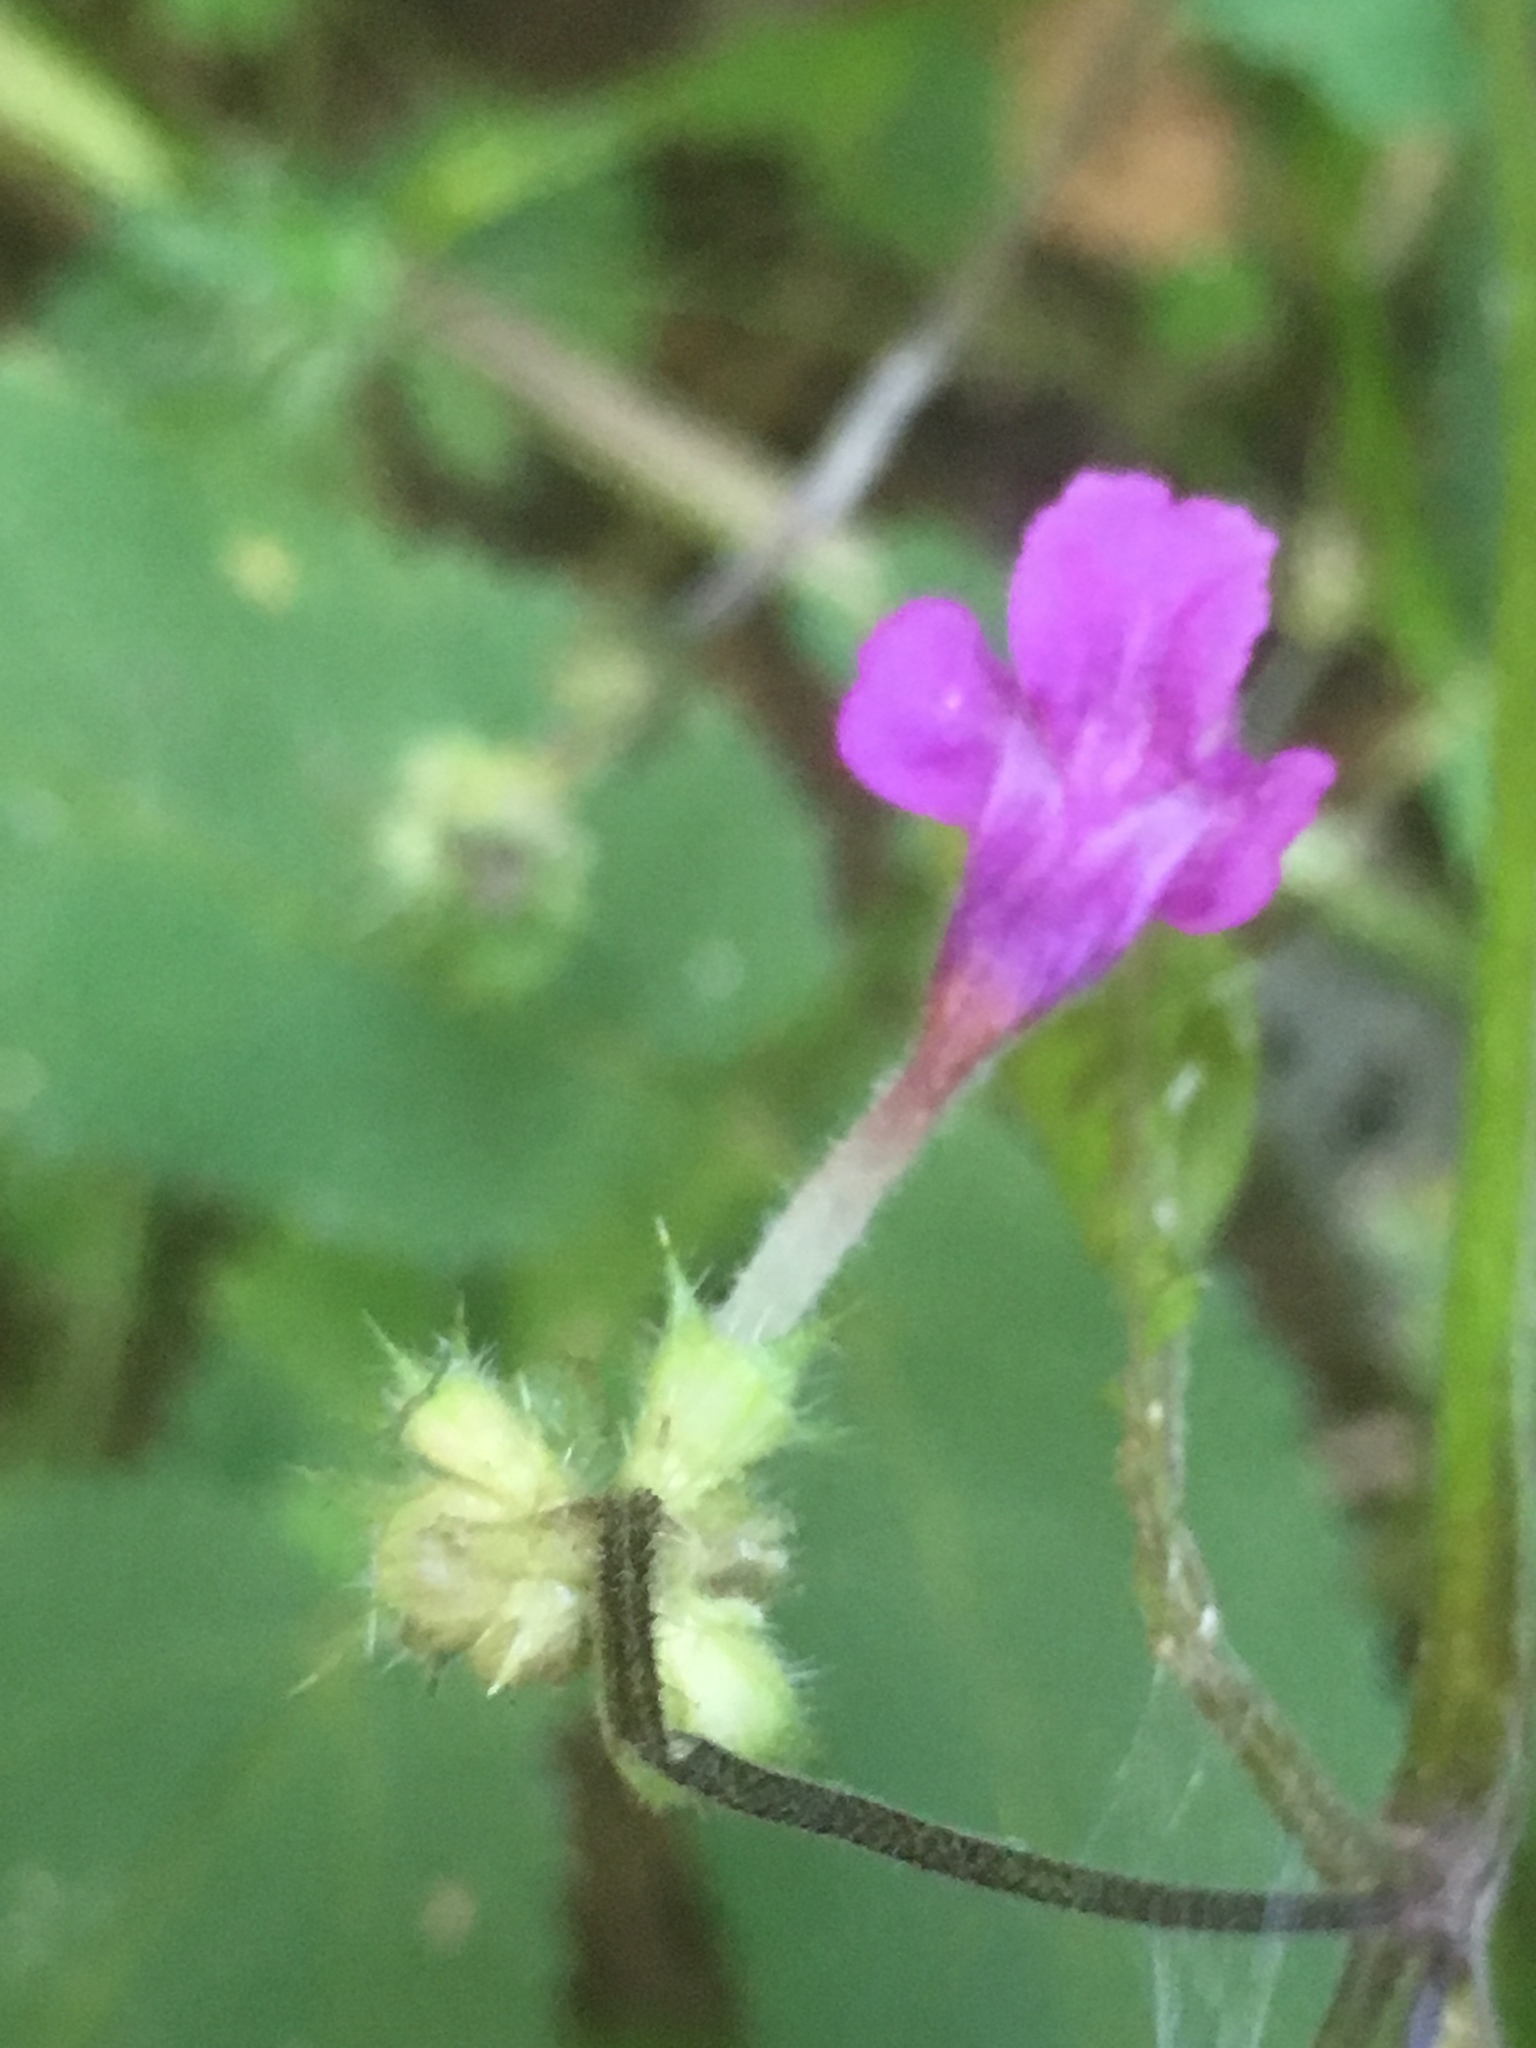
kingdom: Plantae
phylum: Tracheophyta
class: Magnoliopsida
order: Lamiales
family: Lamiaceae
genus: Galeopsis
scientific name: Galeopsis pubescens
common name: Downy hemp-nettle
